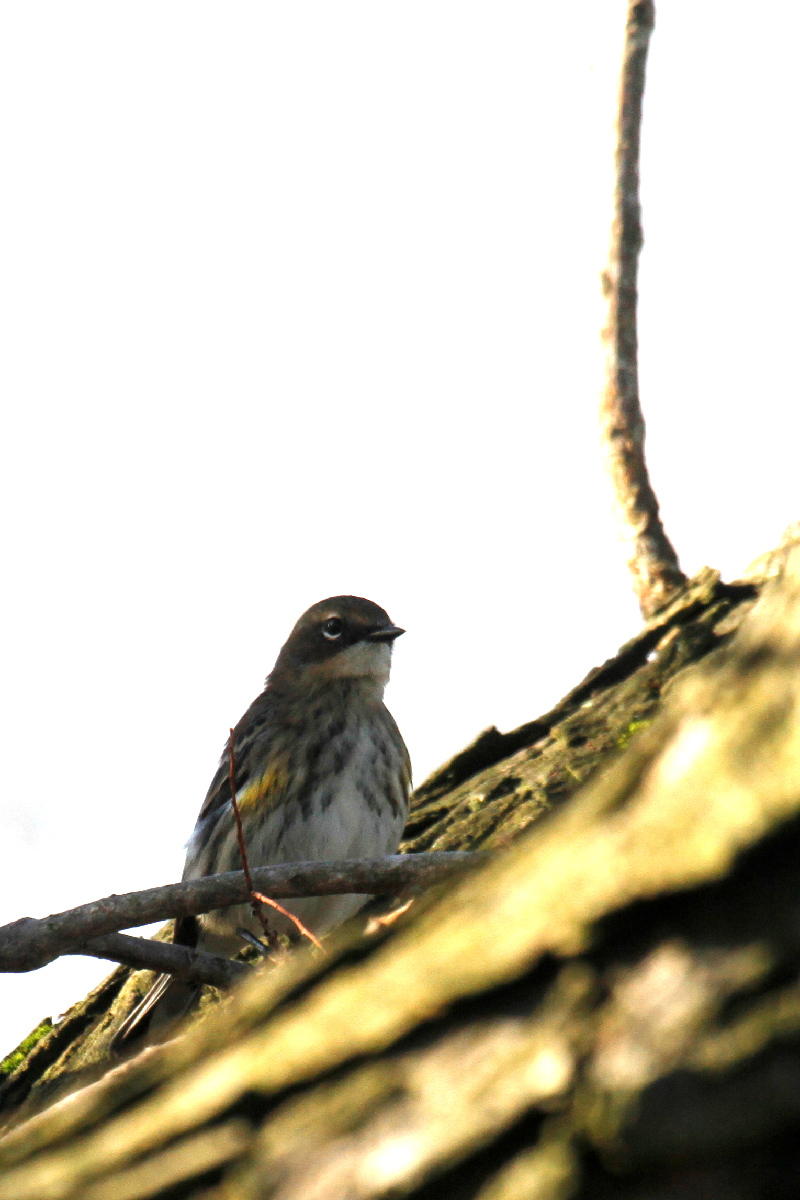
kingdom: Animalia
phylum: Chordata
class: Aves
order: Passeriformes
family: Parulidae
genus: Setophaga
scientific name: Setophaga coronata
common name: Myrtle warbler
